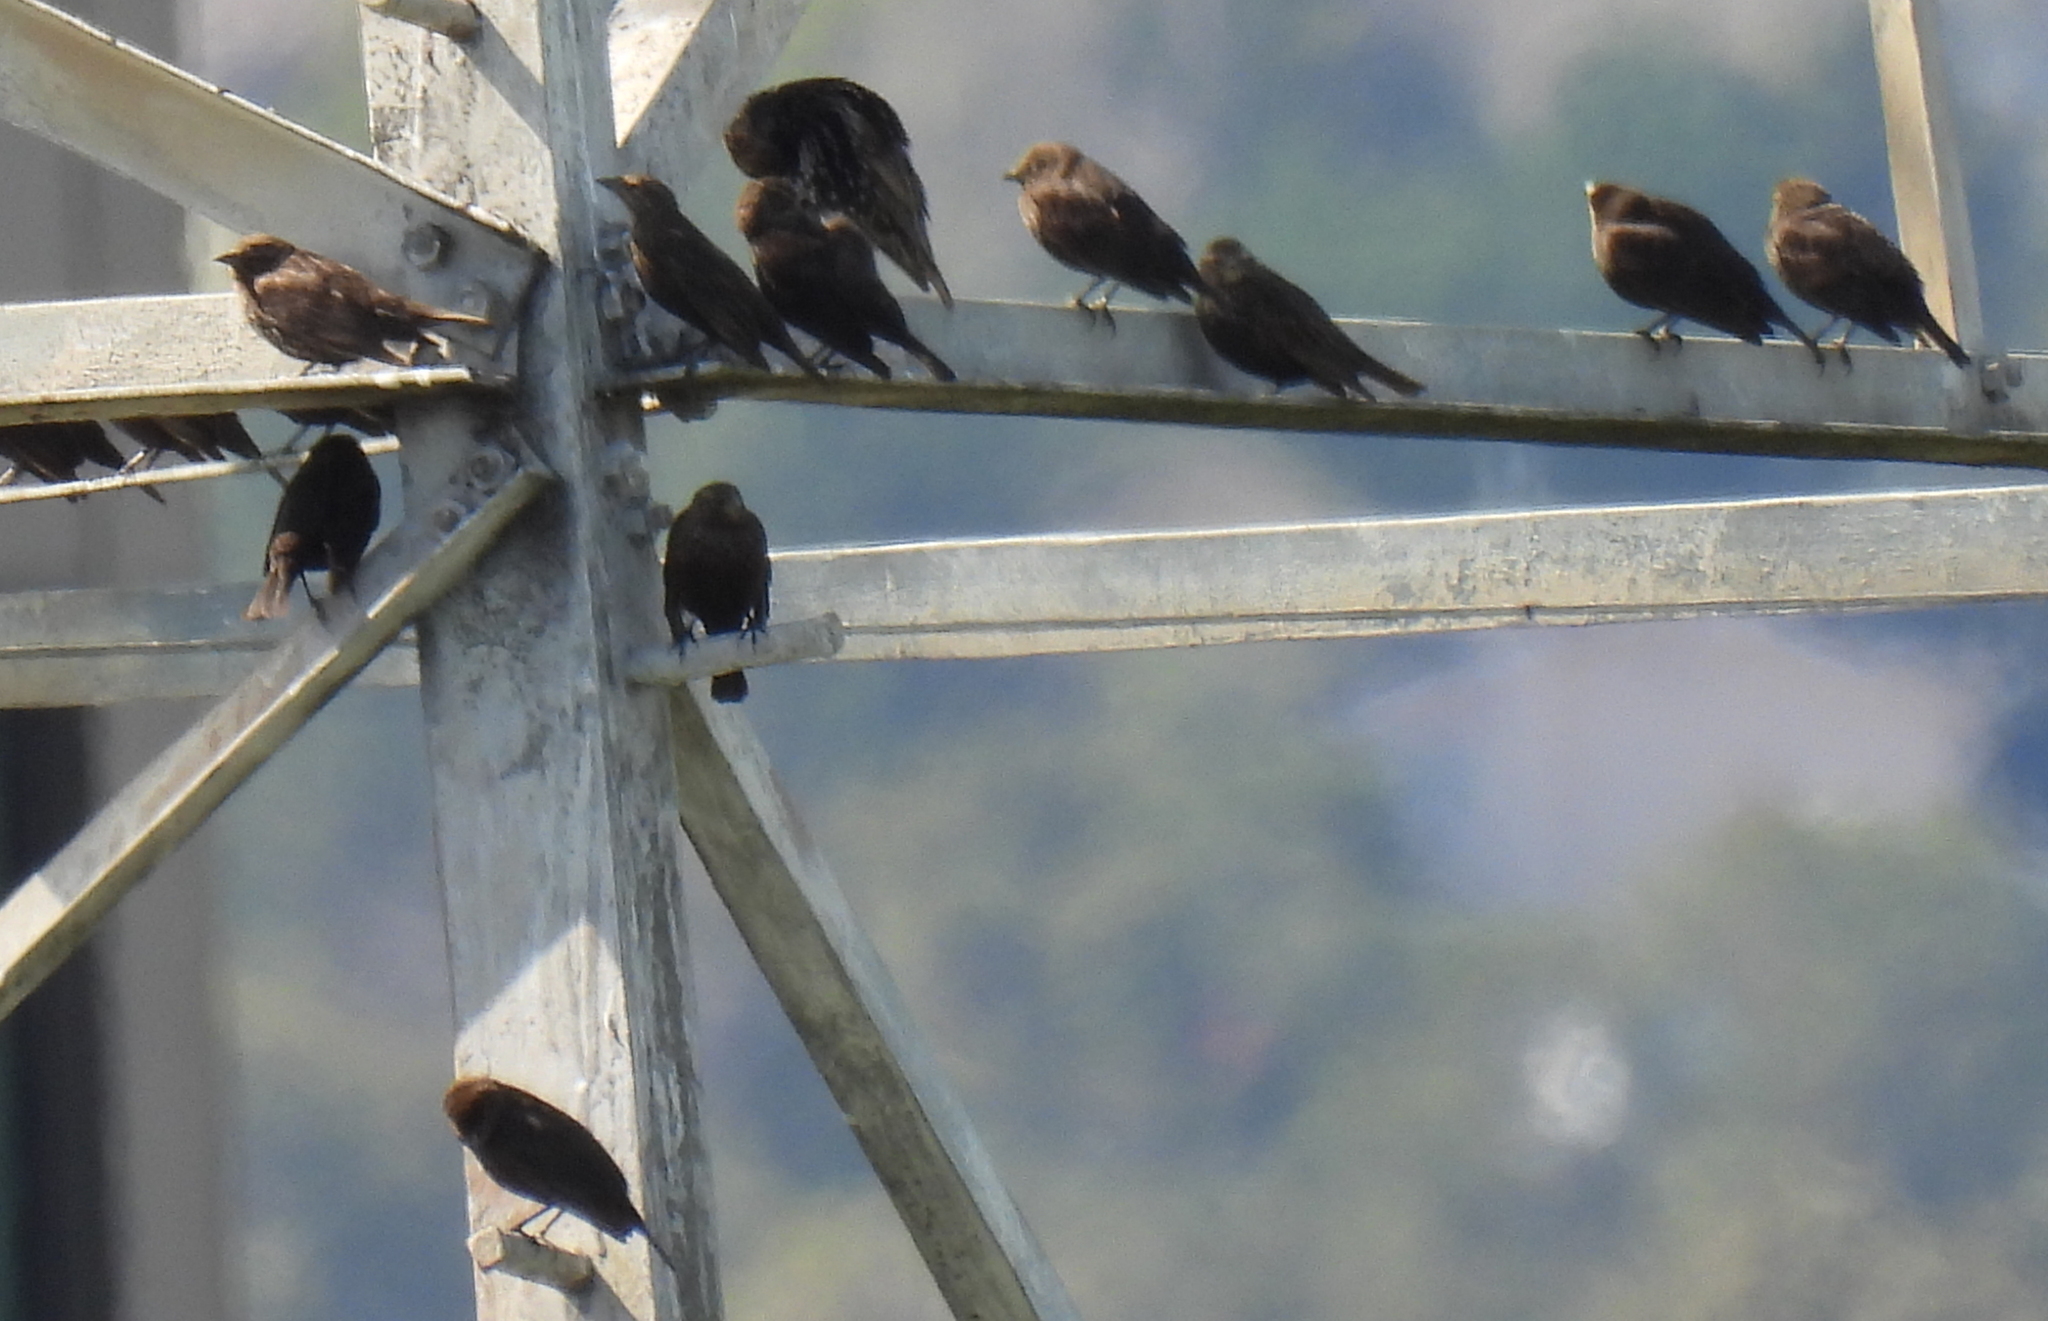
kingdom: Animalia
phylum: Chordata
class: Aves
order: Passeriformes
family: Icteridae
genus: Molothrus
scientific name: Molothrus ater
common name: Brown-headed cowbird
